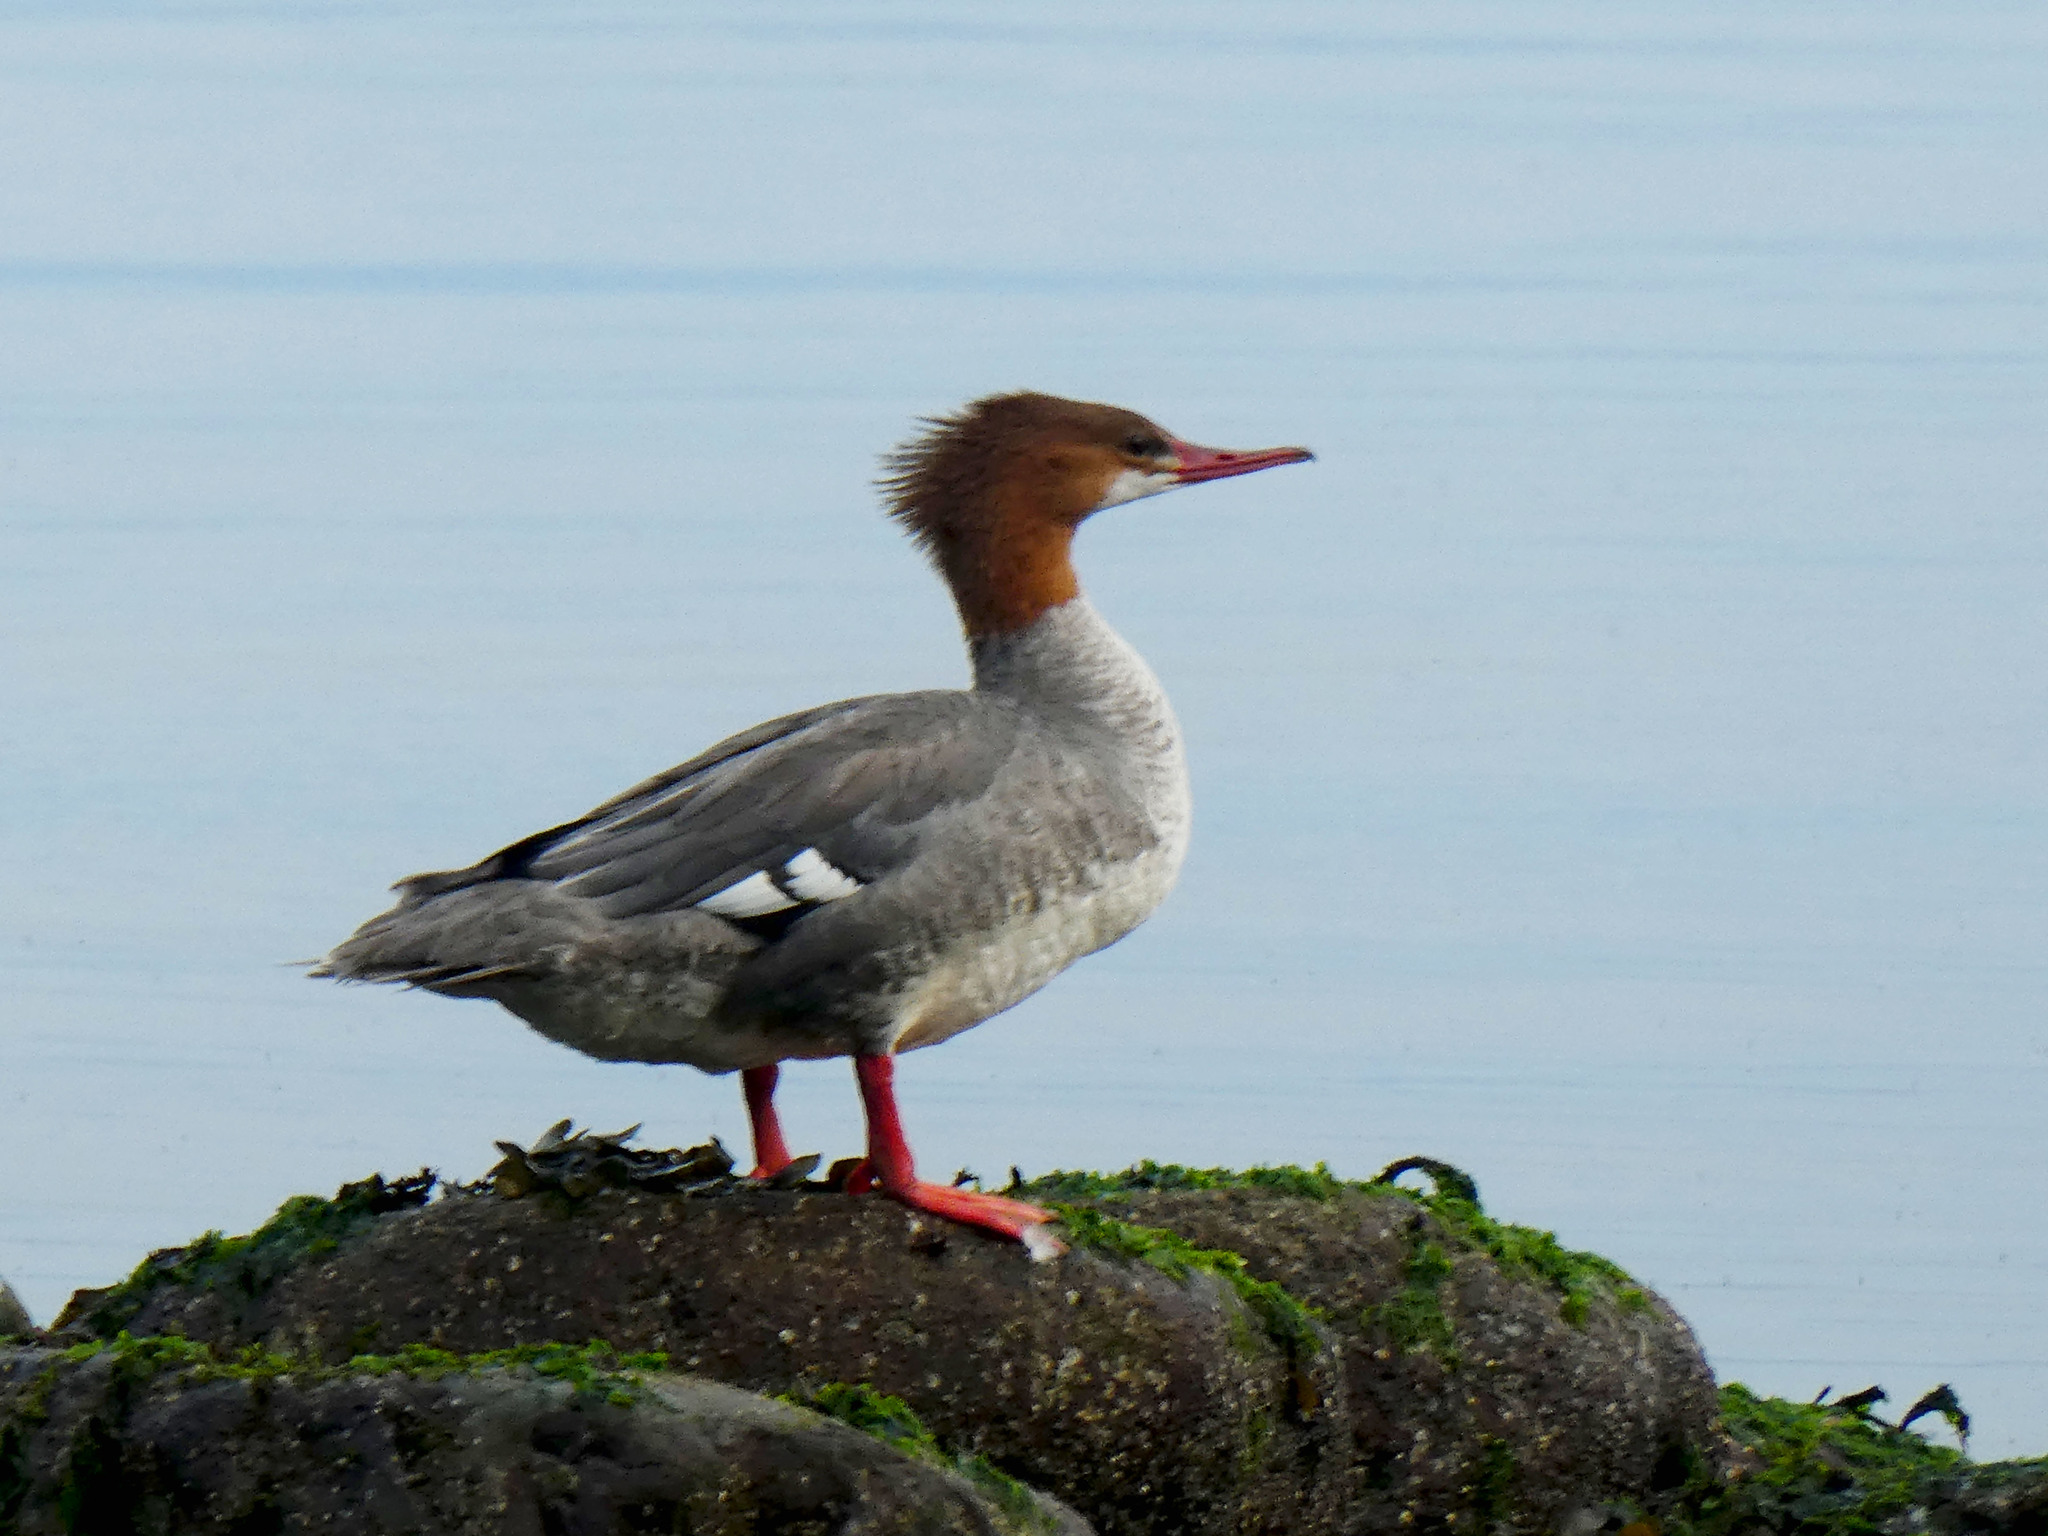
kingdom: Animalia
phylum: Chordata
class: Aves
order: Anseriformes
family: Anatidae
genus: Mergus
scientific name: Mergus merganser
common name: Common merganser
